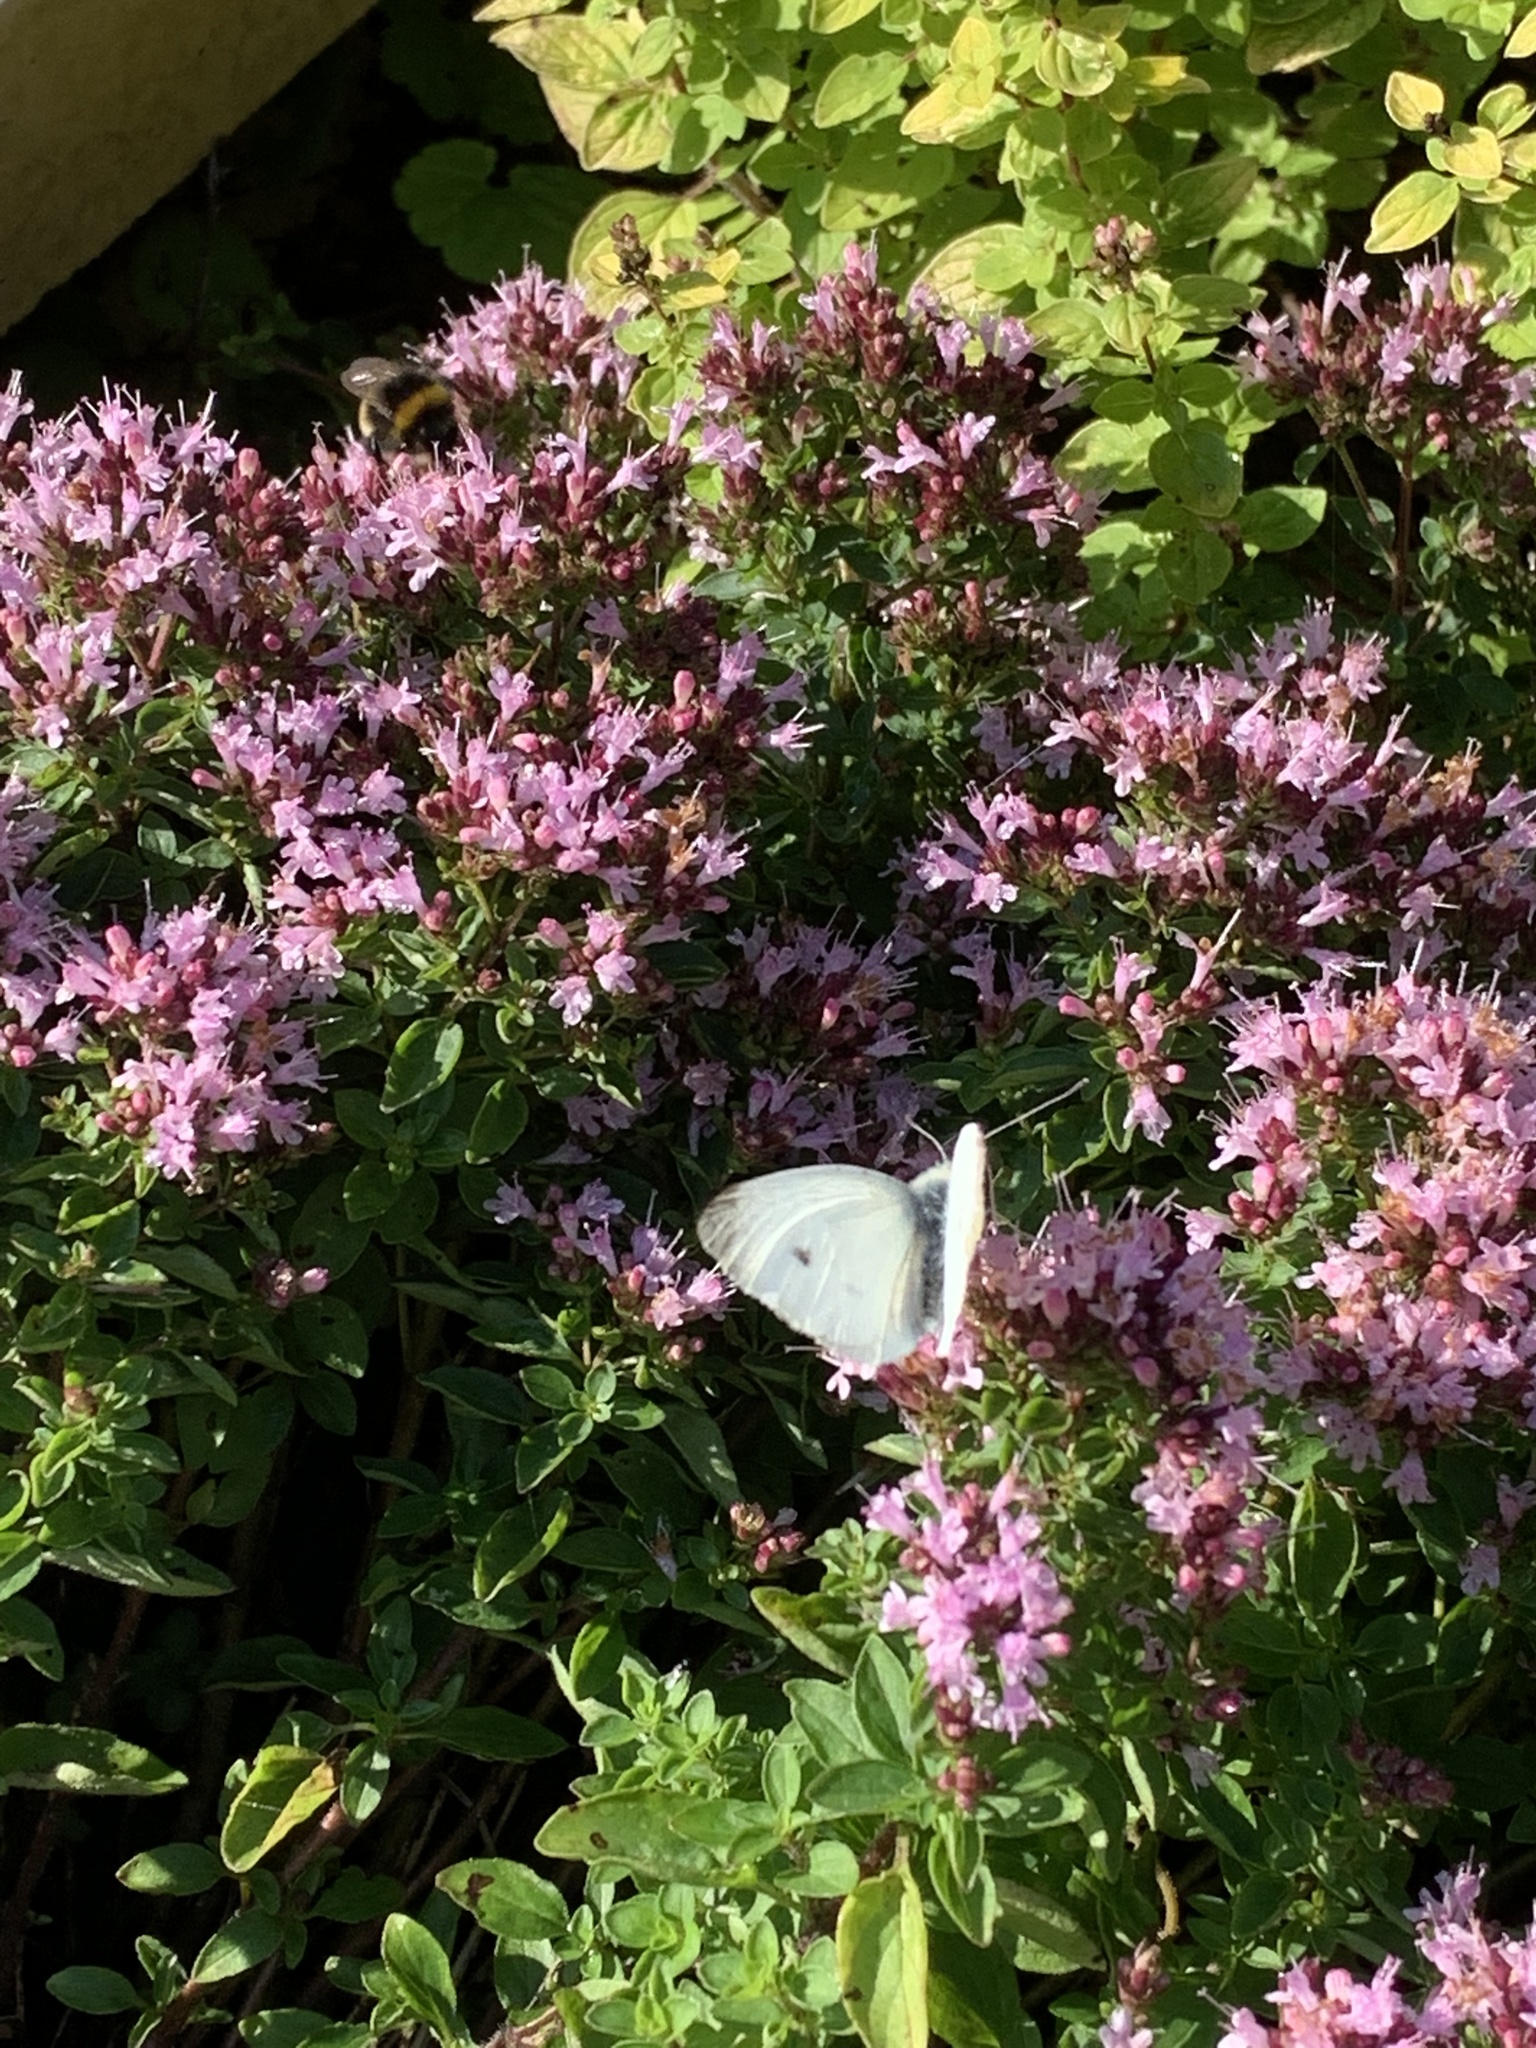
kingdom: Animalia
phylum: Arthropoda
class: Insecta
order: Lepidoptera
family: Pieridae
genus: Pieris
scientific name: Pieris rapae
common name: Small white
